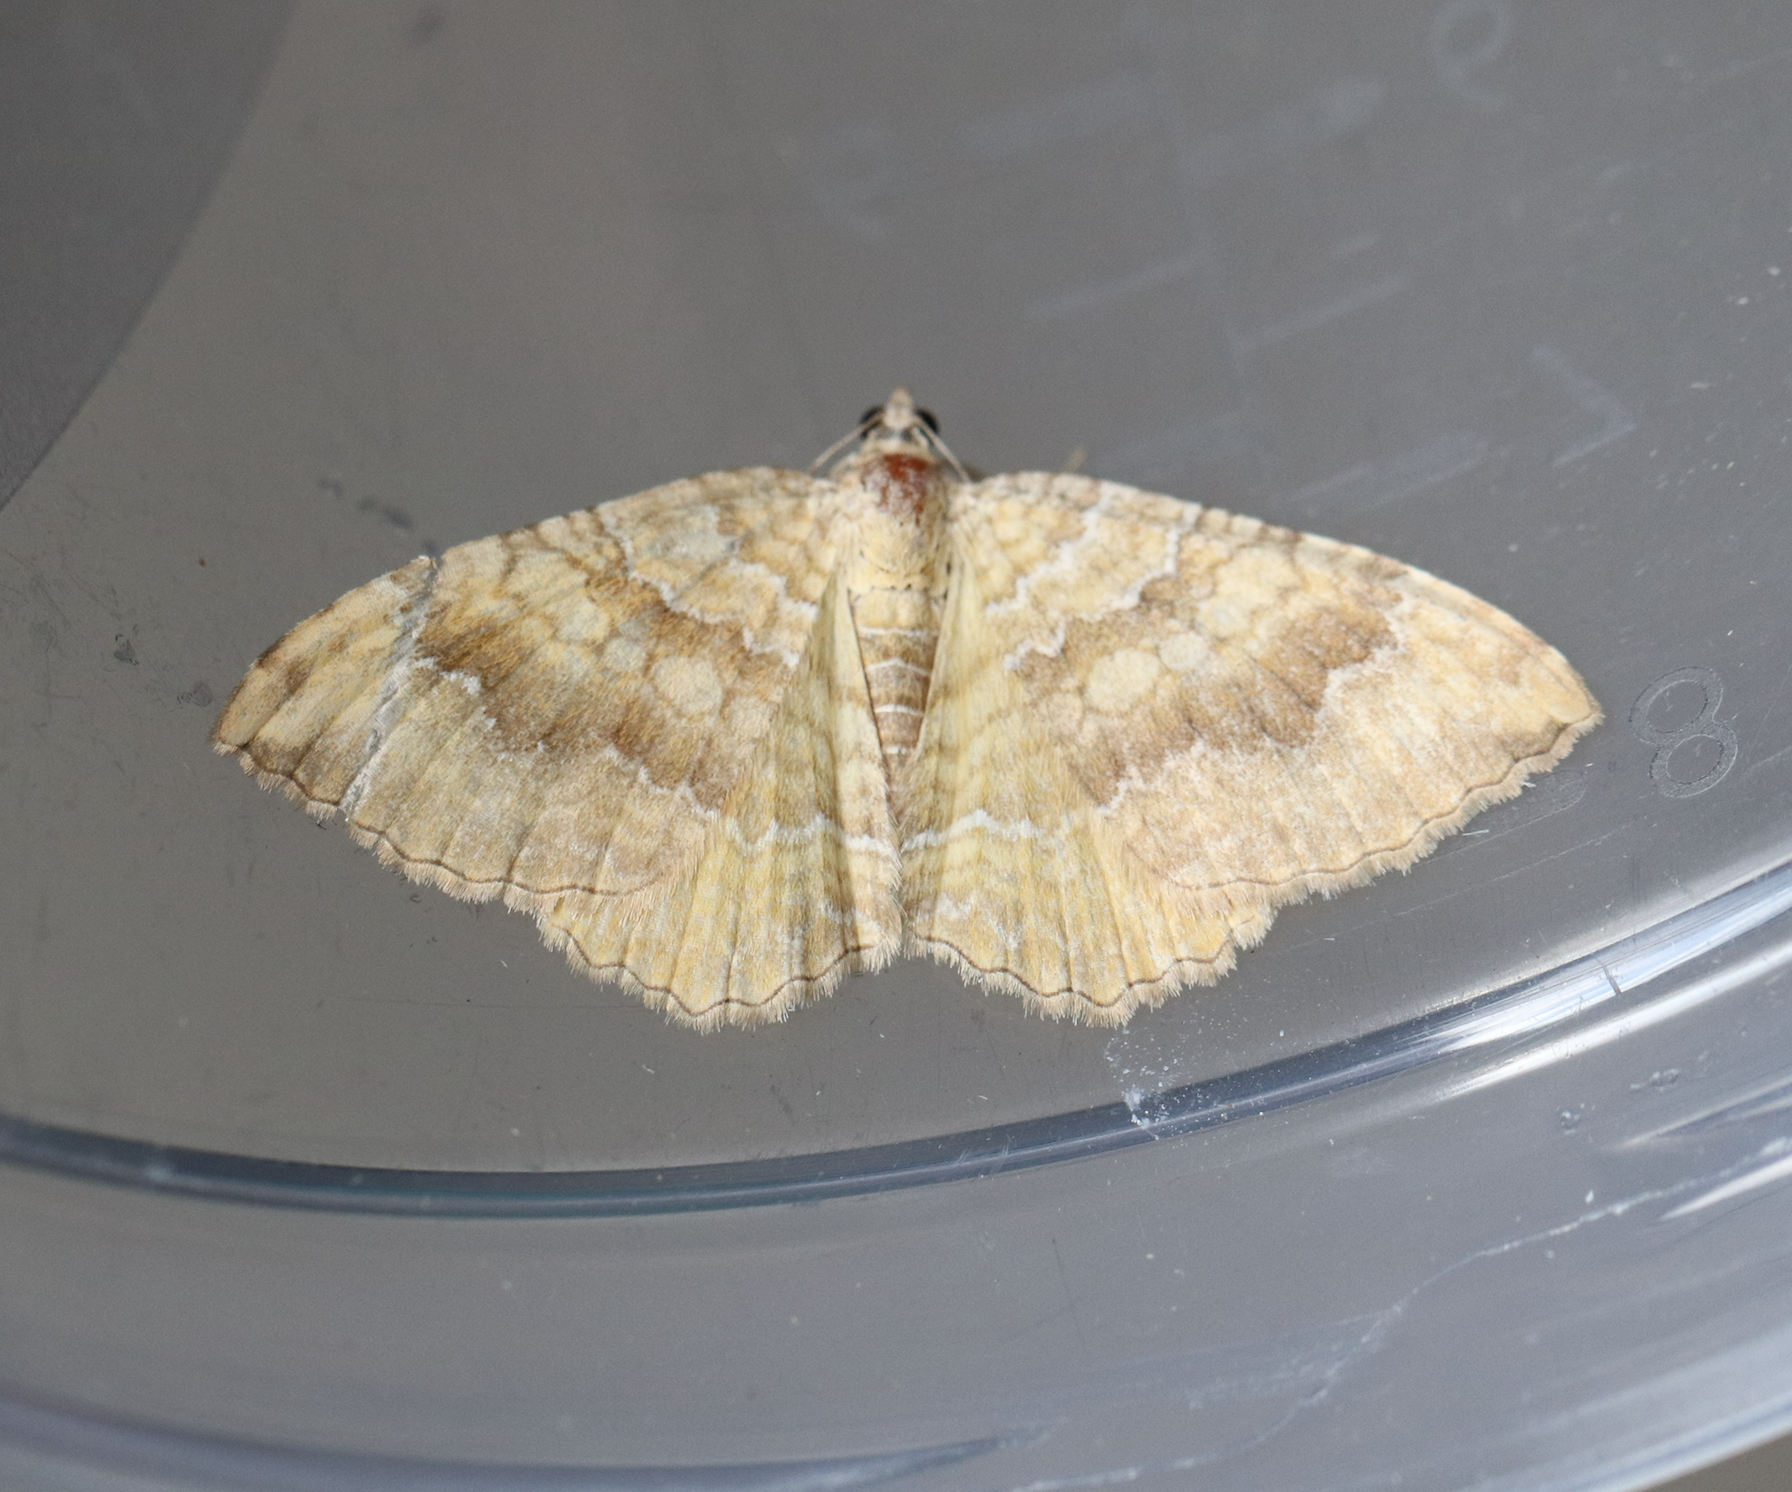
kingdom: Animalia
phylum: Arthropoda
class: Insecta
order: Lepidoptera
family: Geometridae
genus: Camptogramma
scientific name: Camptogramma bilineata
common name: Yellow shell
